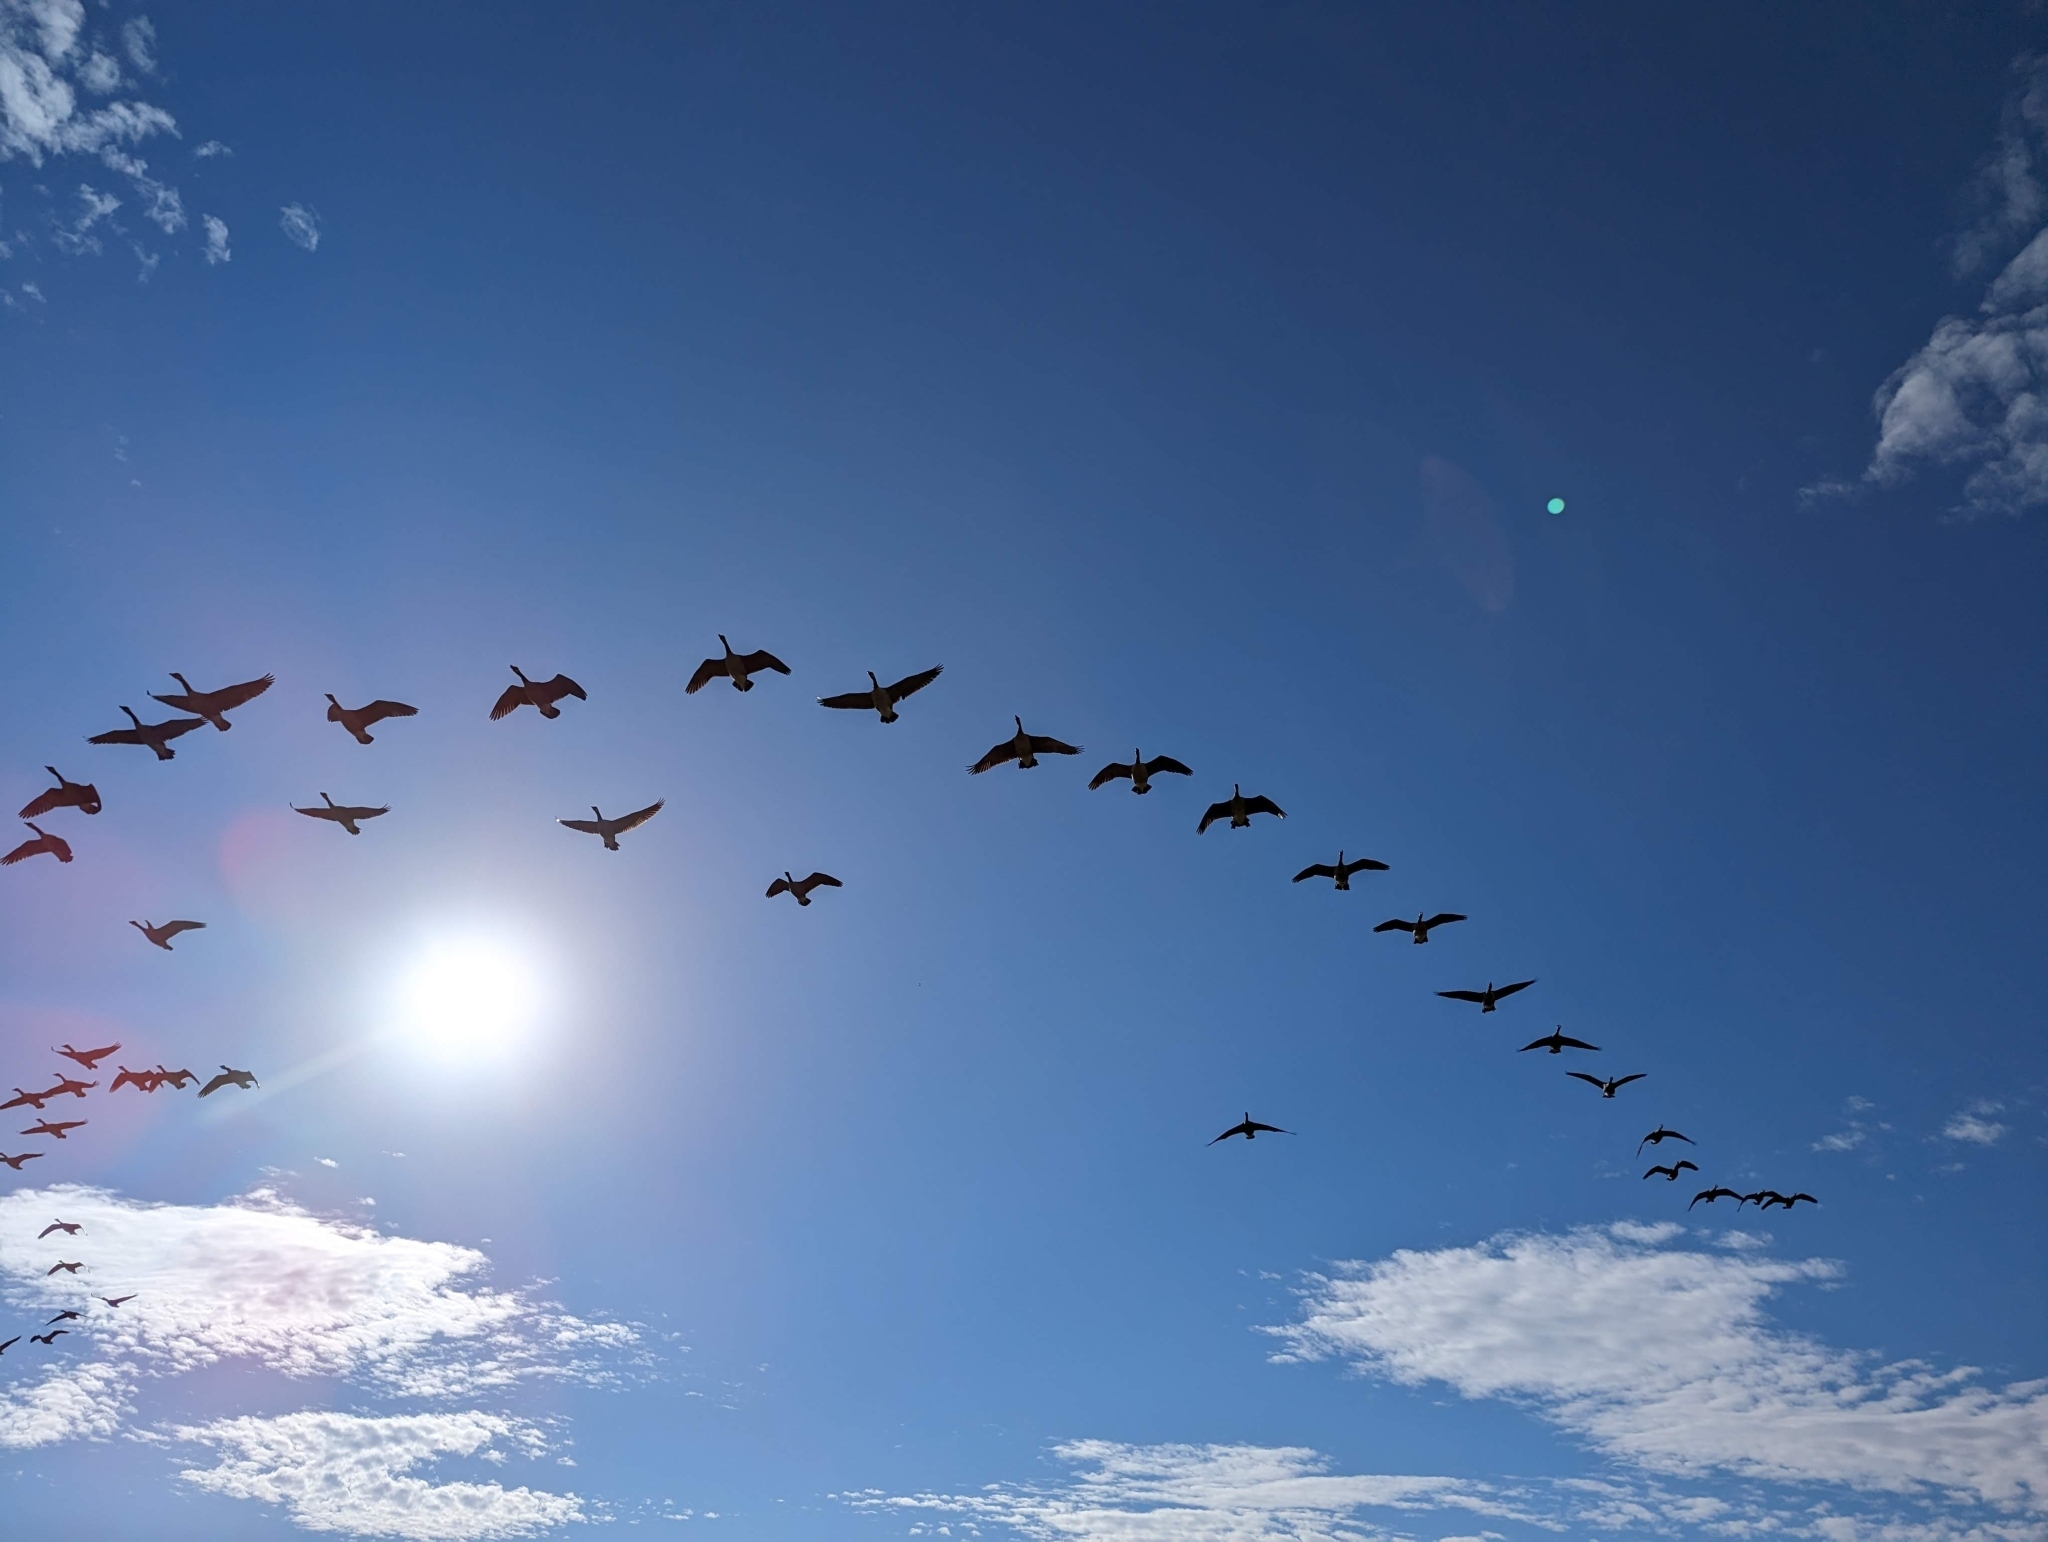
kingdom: Animalia
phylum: Chordata
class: Aves
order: Anseriformes
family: Anatidae
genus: Branta
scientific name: Branta canadensis
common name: Canada goose
